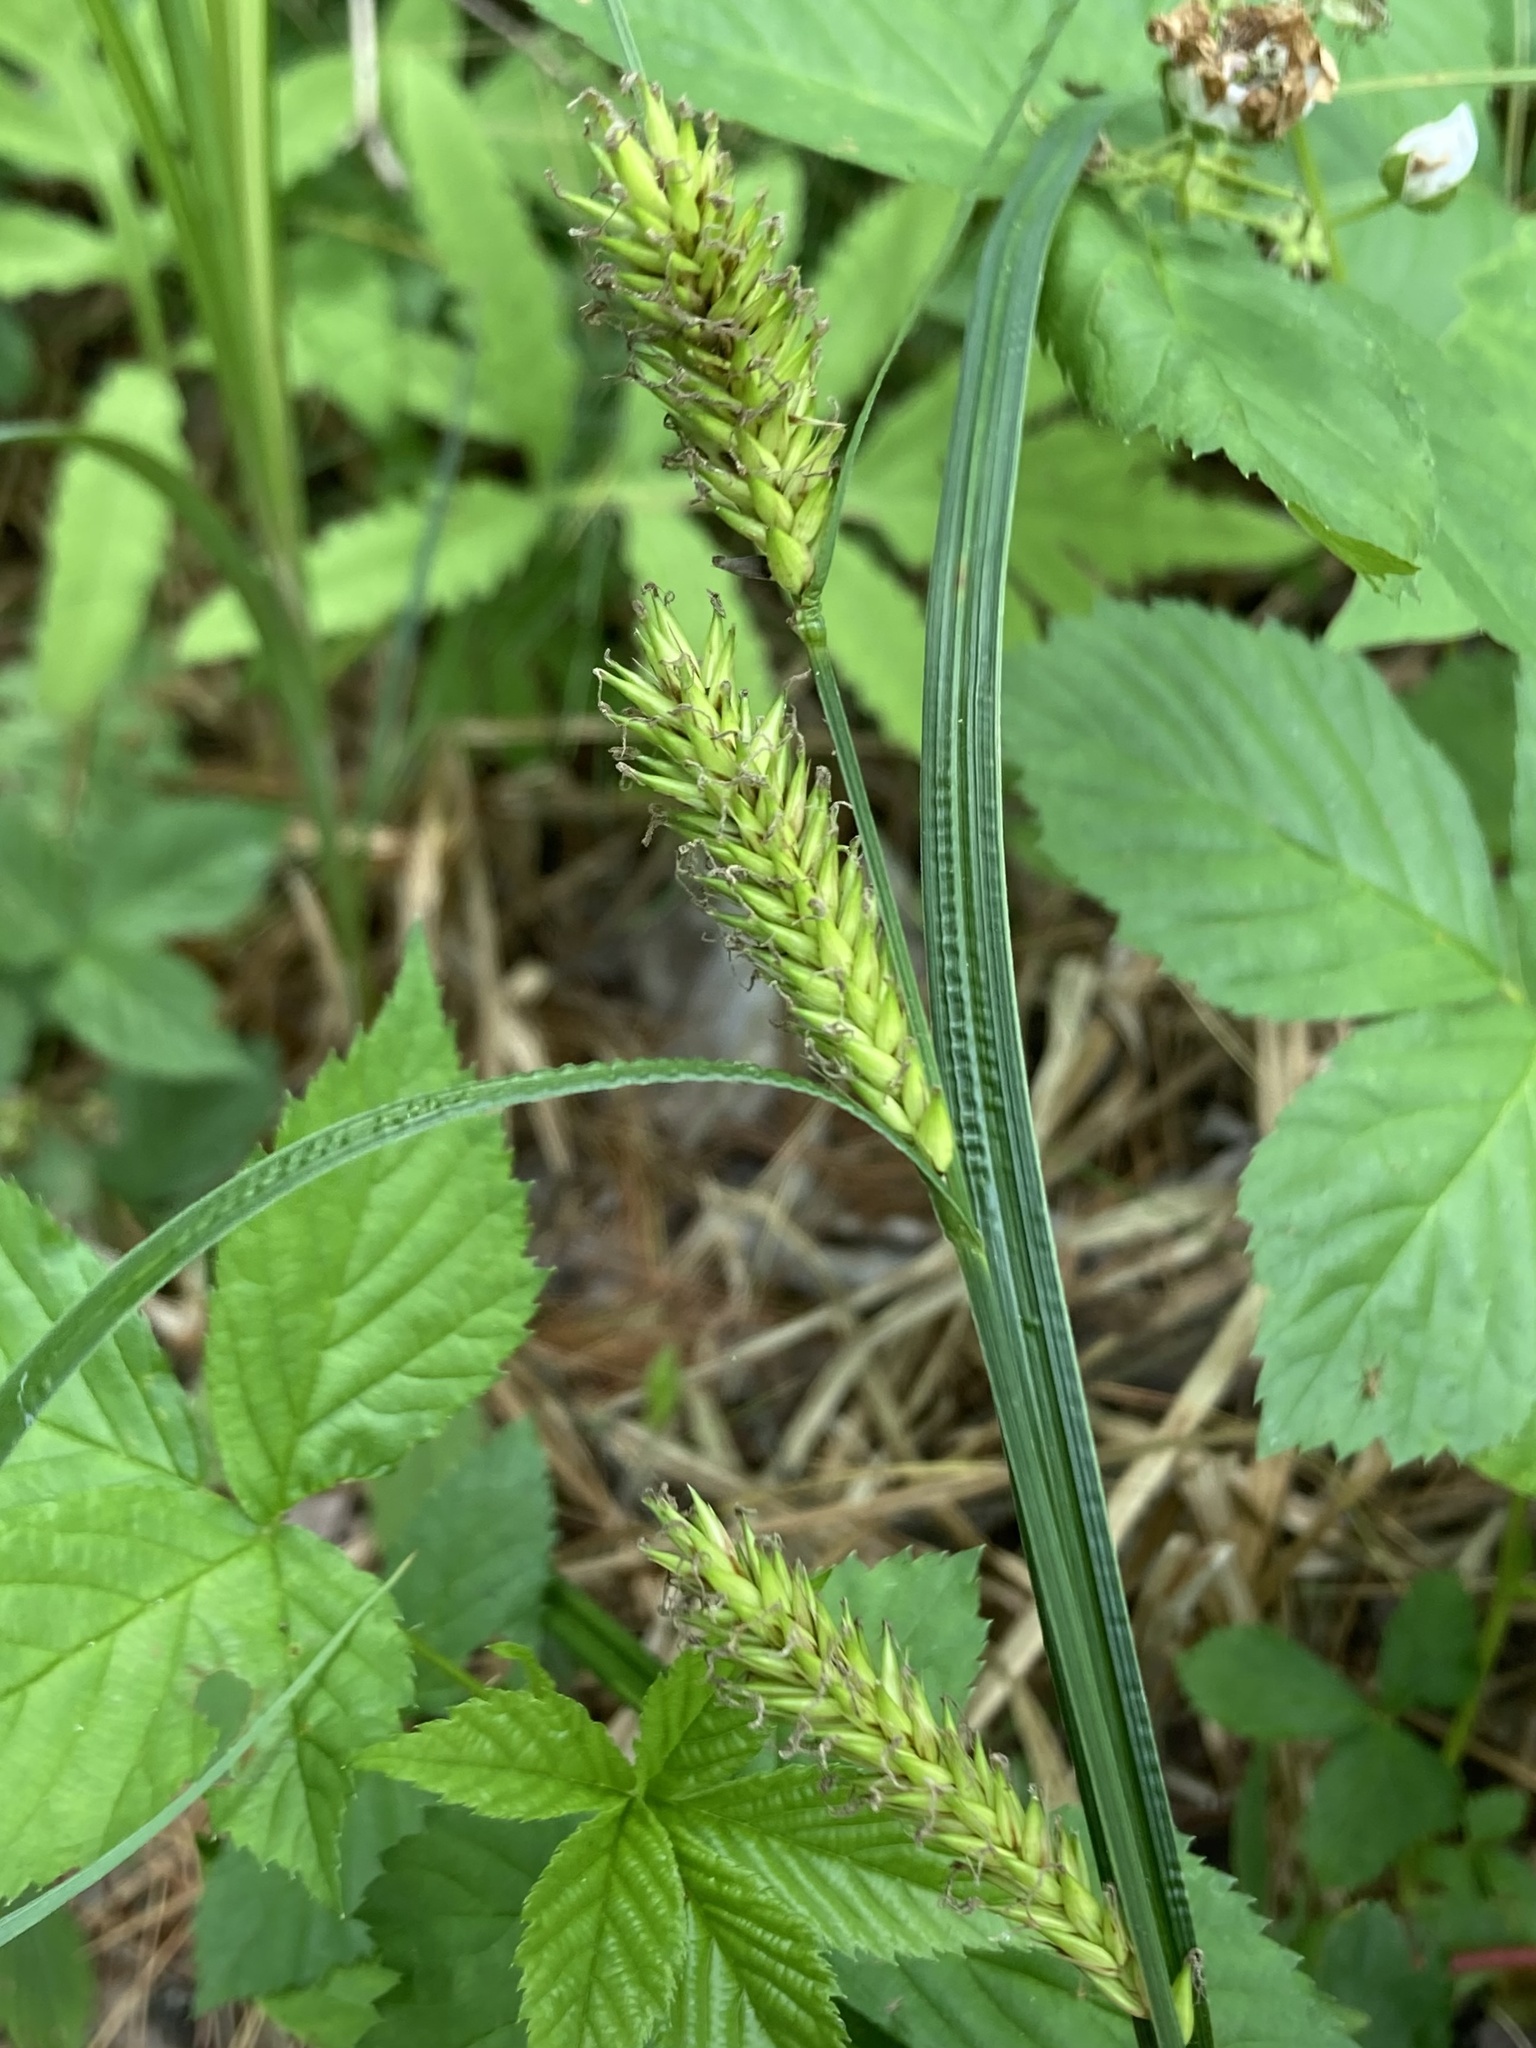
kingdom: Plantae
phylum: Tracheophyta
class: Liliopsida
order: Poales
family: Cyperaceae
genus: Carex
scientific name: Carex lacustris
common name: Common lake sedge
